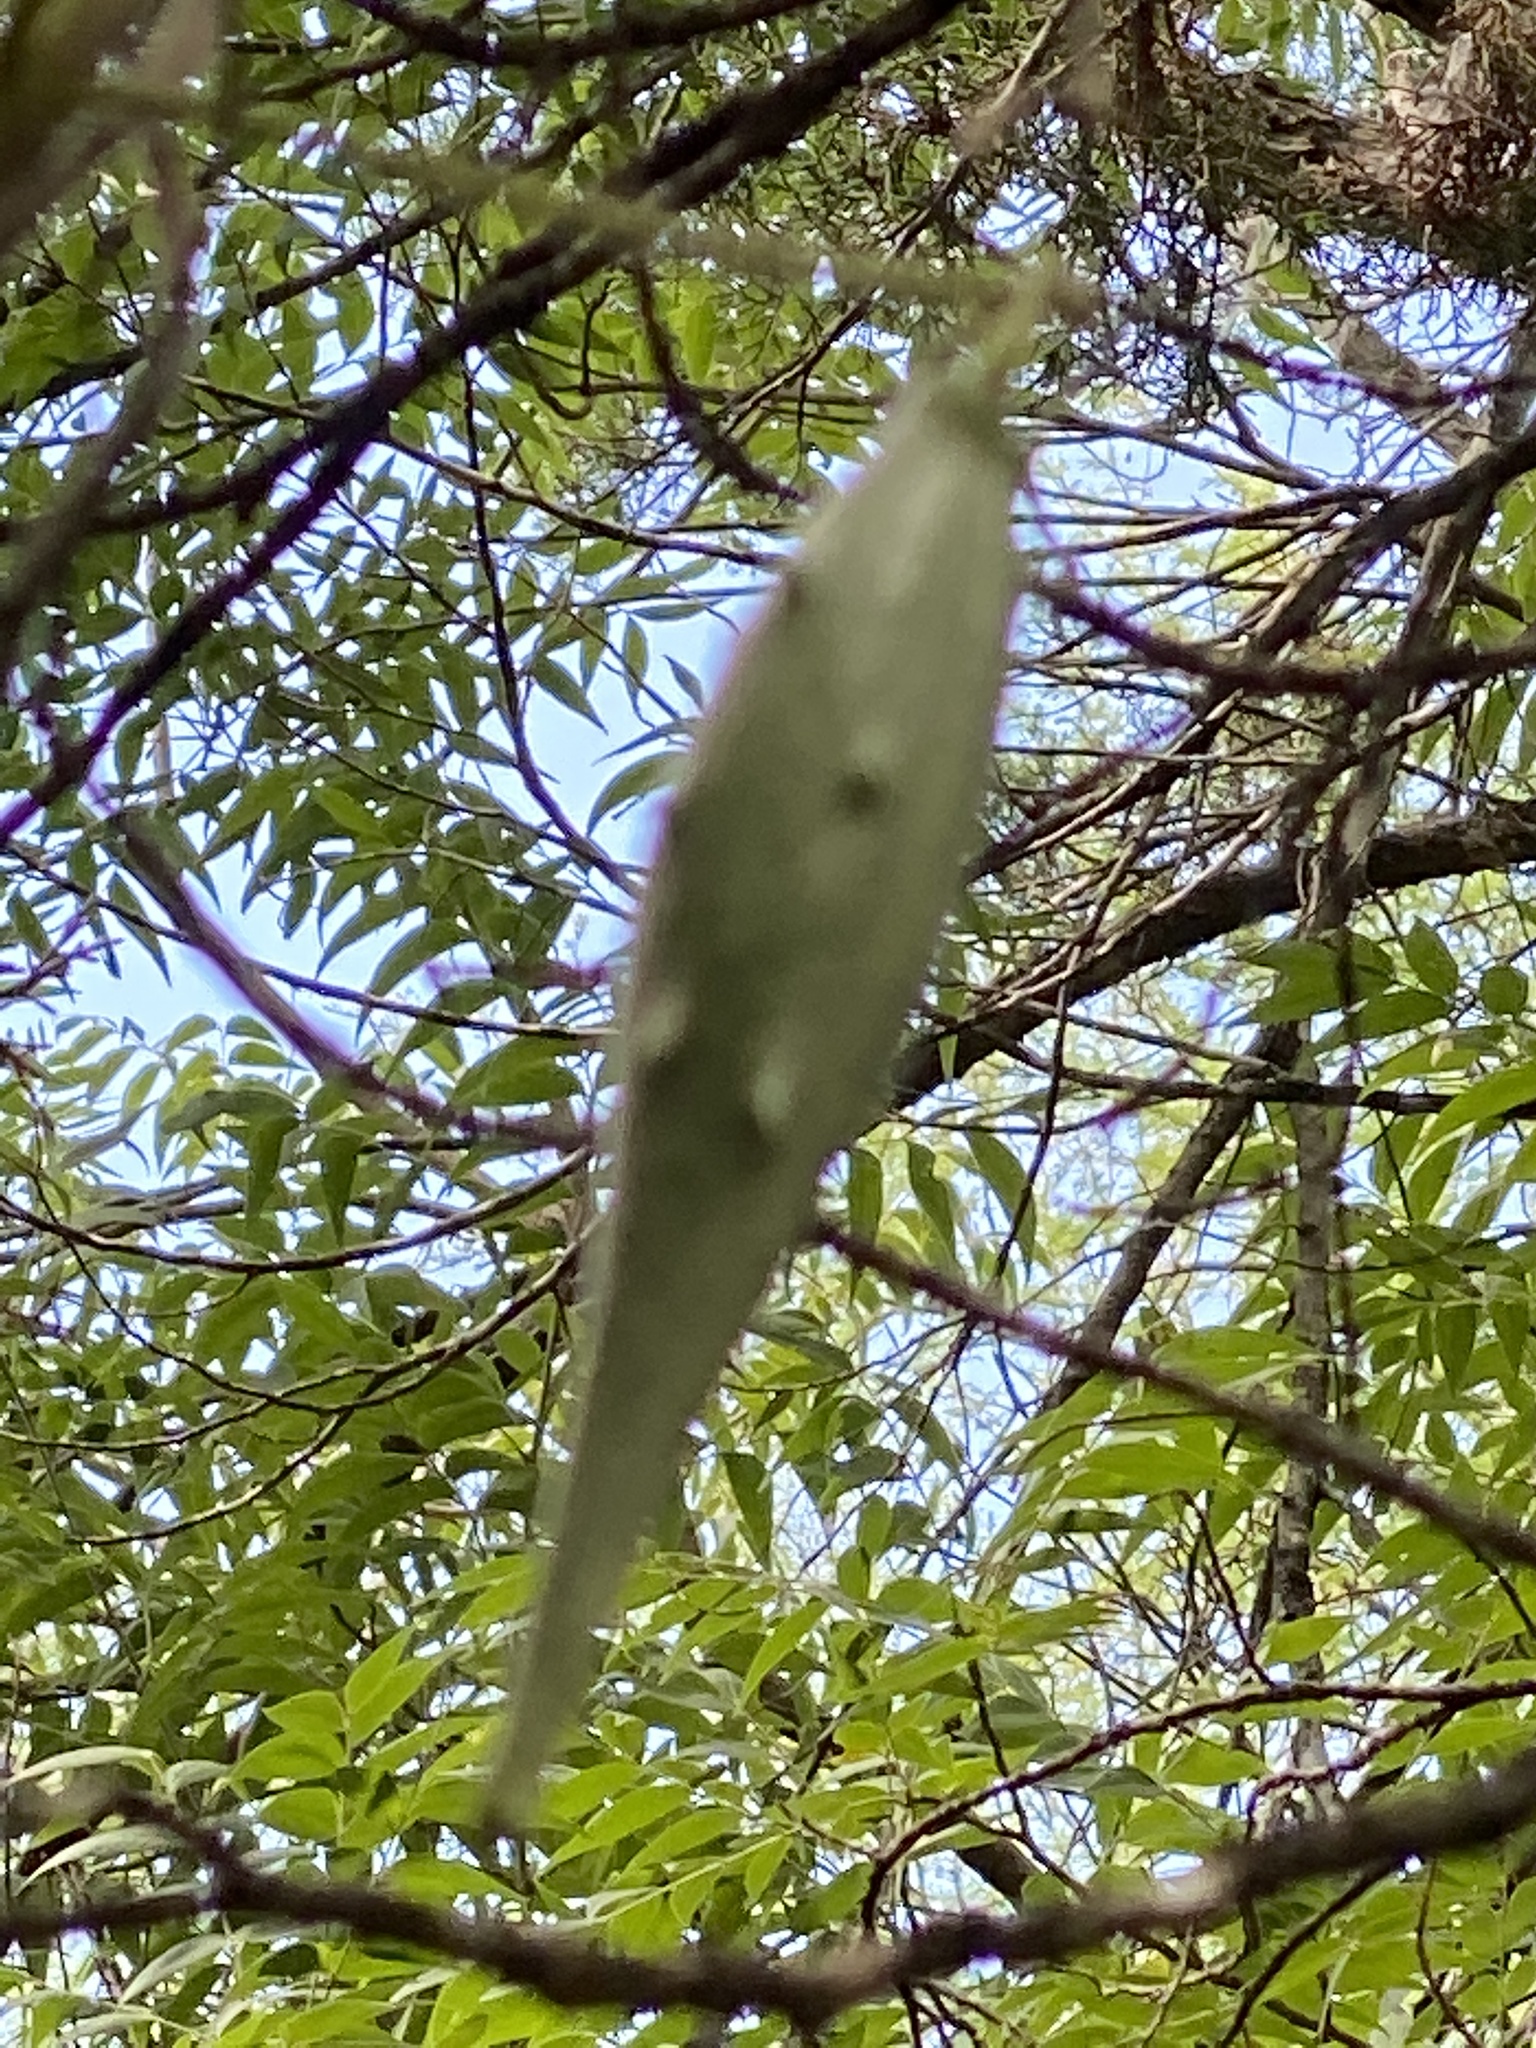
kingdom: Plantae
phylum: Tracheophyta
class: Magnoliopsida
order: Gentianales
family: Apocynaceae
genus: Dictyanthus
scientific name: Dictyanthus reticulatus
